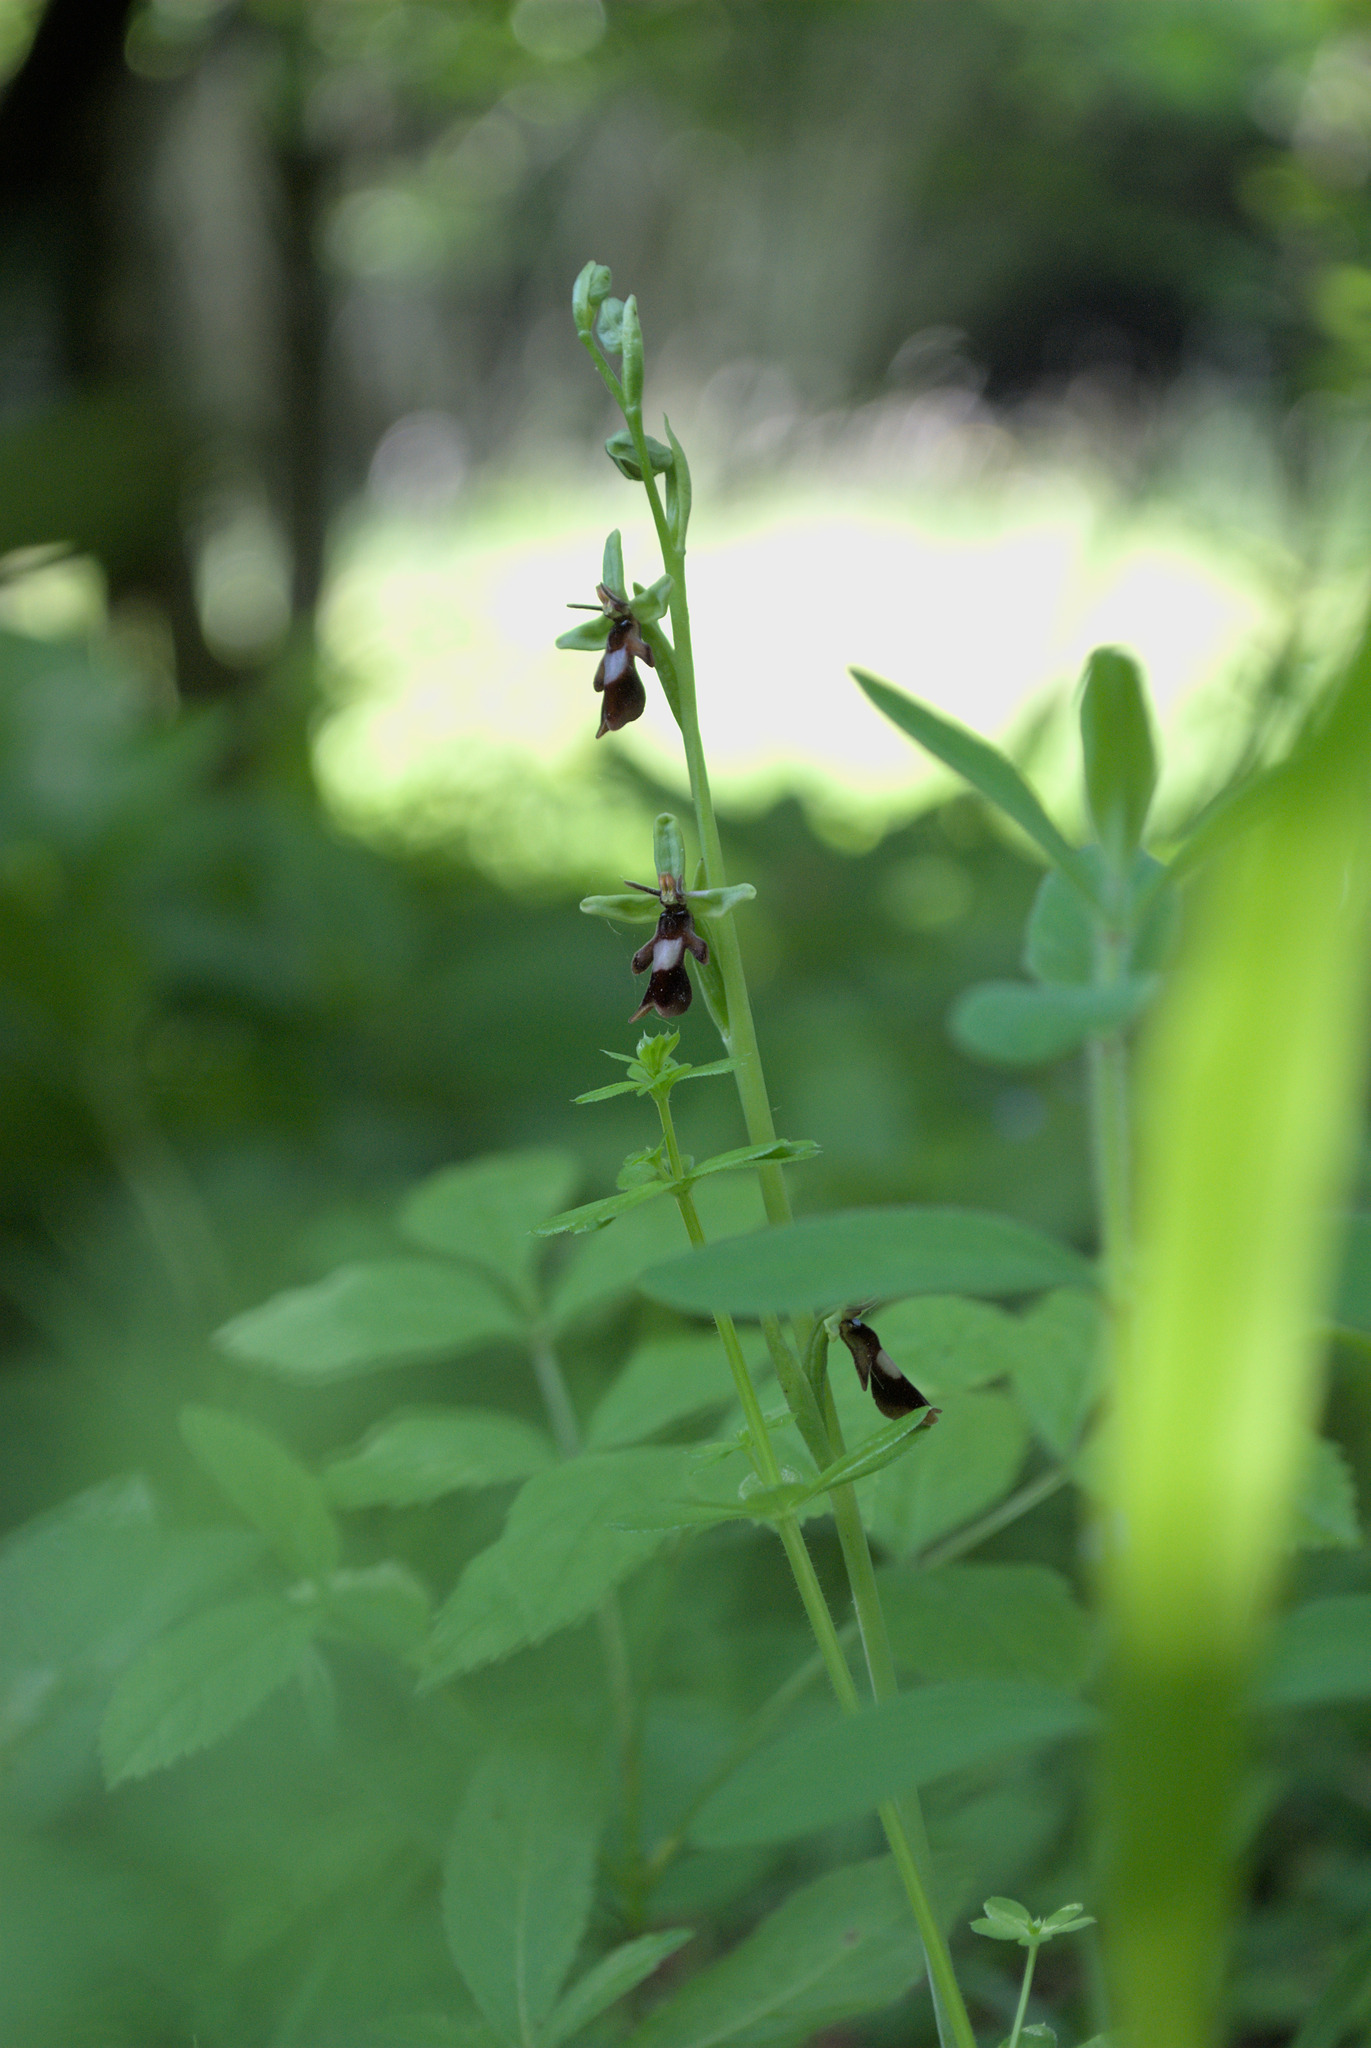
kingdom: Plantae
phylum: Tracheophyta
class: Liliopsida
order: Asparagales
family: Orchidaceae
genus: Ophrys
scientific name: Ophrys insectifera
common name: Fly orchid
